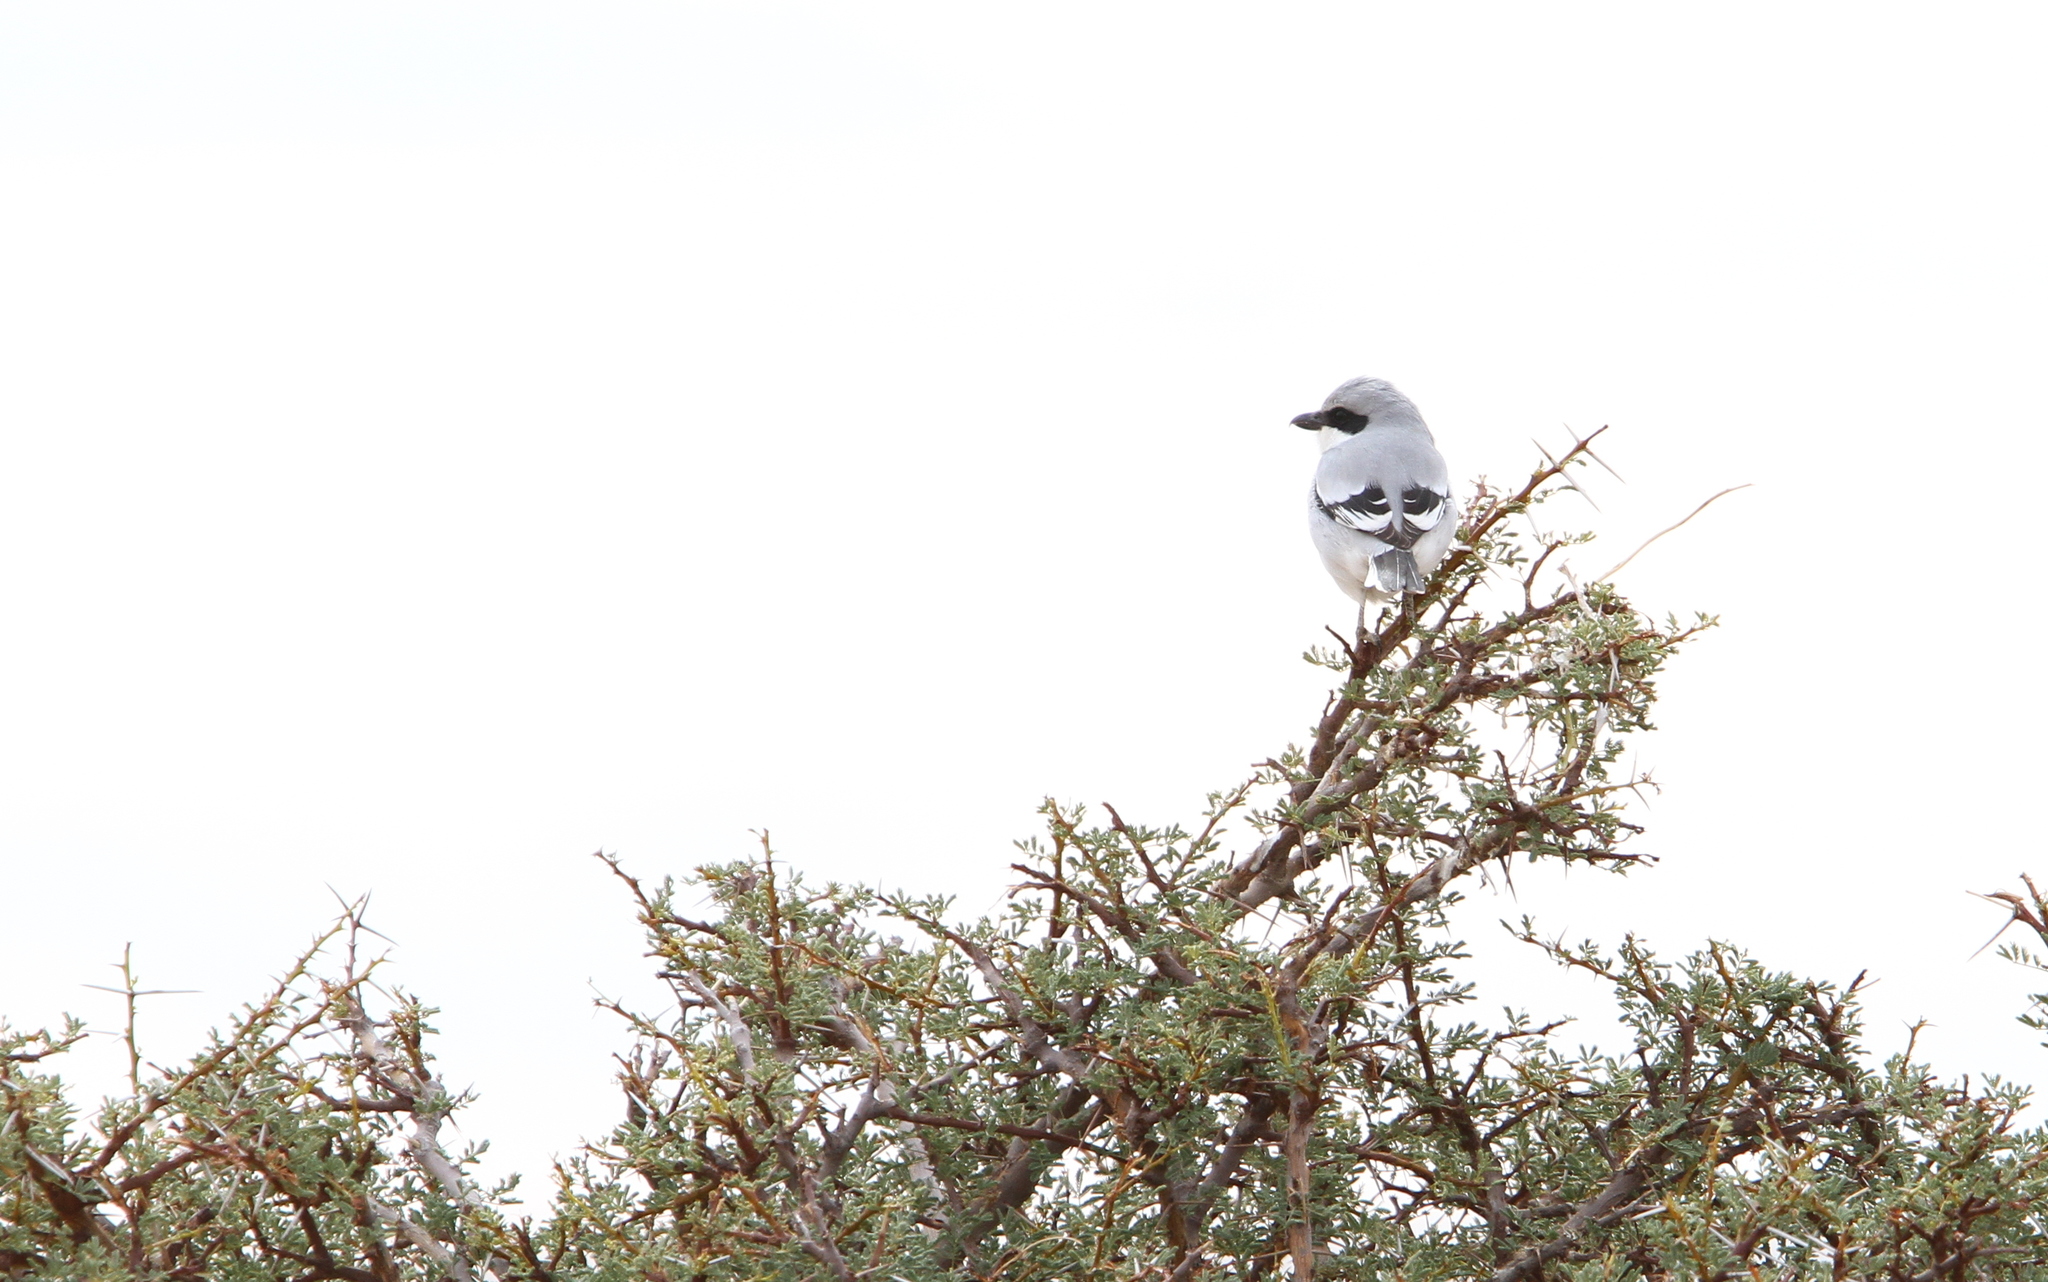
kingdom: Animalia
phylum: Chordata
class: Aves
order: Passeriformes
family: Laniidae
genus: Lanius
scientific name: Lanius excubitor
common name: Great grey shrike
